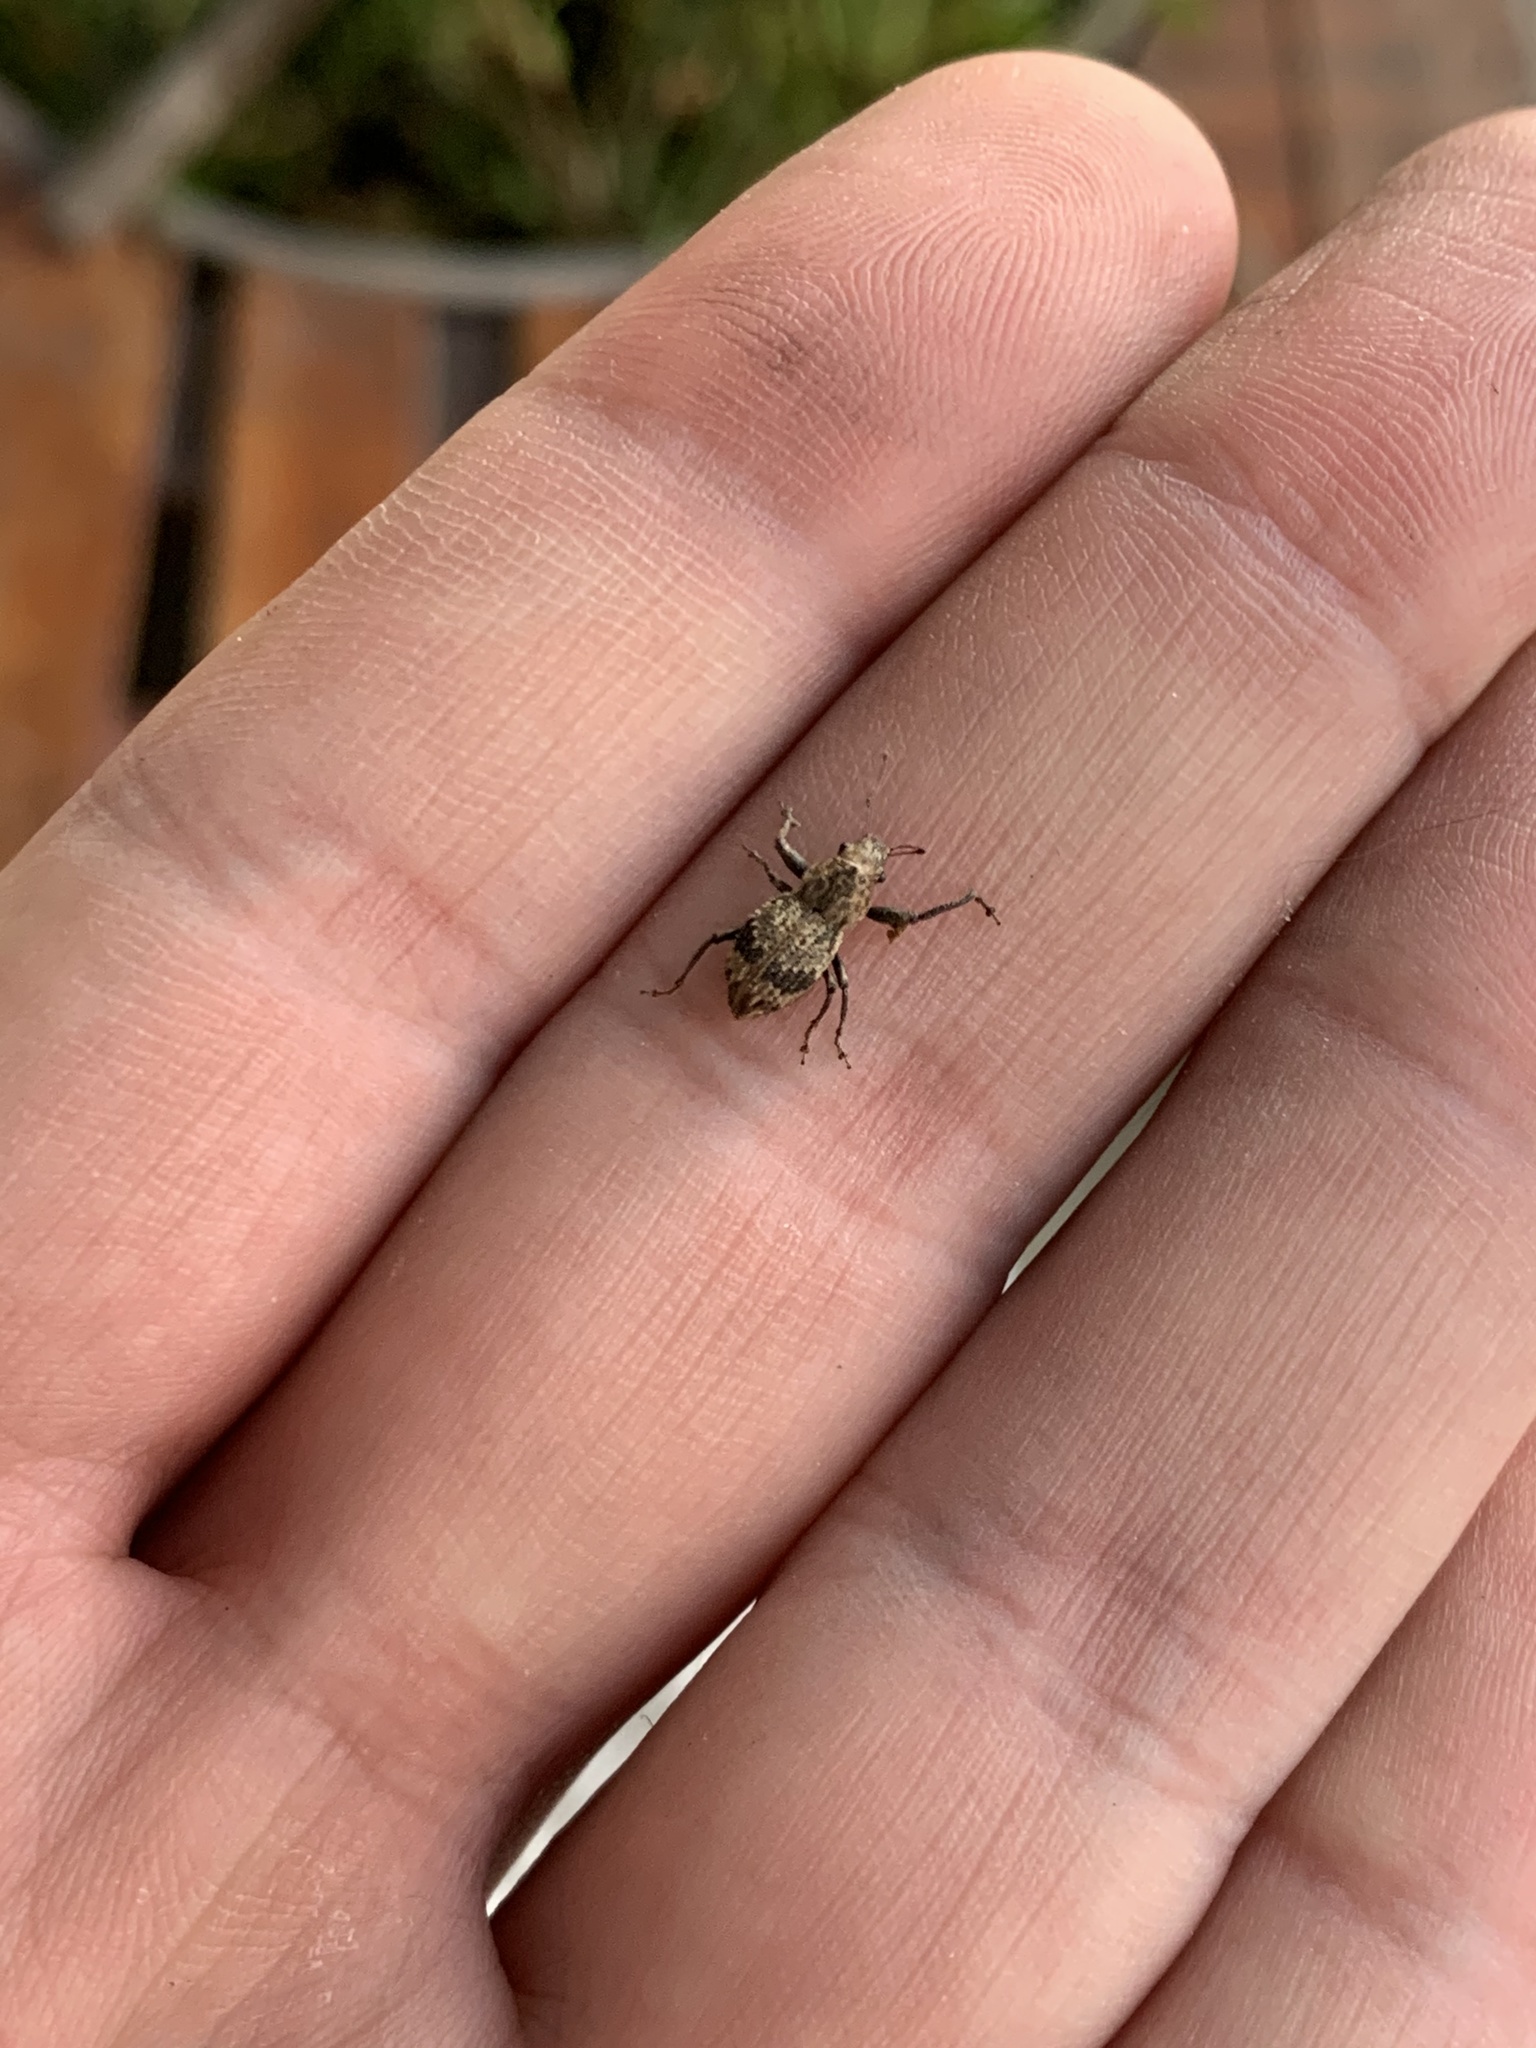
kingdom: Animalia
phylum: Arthropoda
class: Insecta
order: Coleoptera
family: Curculionidae
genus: Pantomorus
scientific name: Pantomorus
